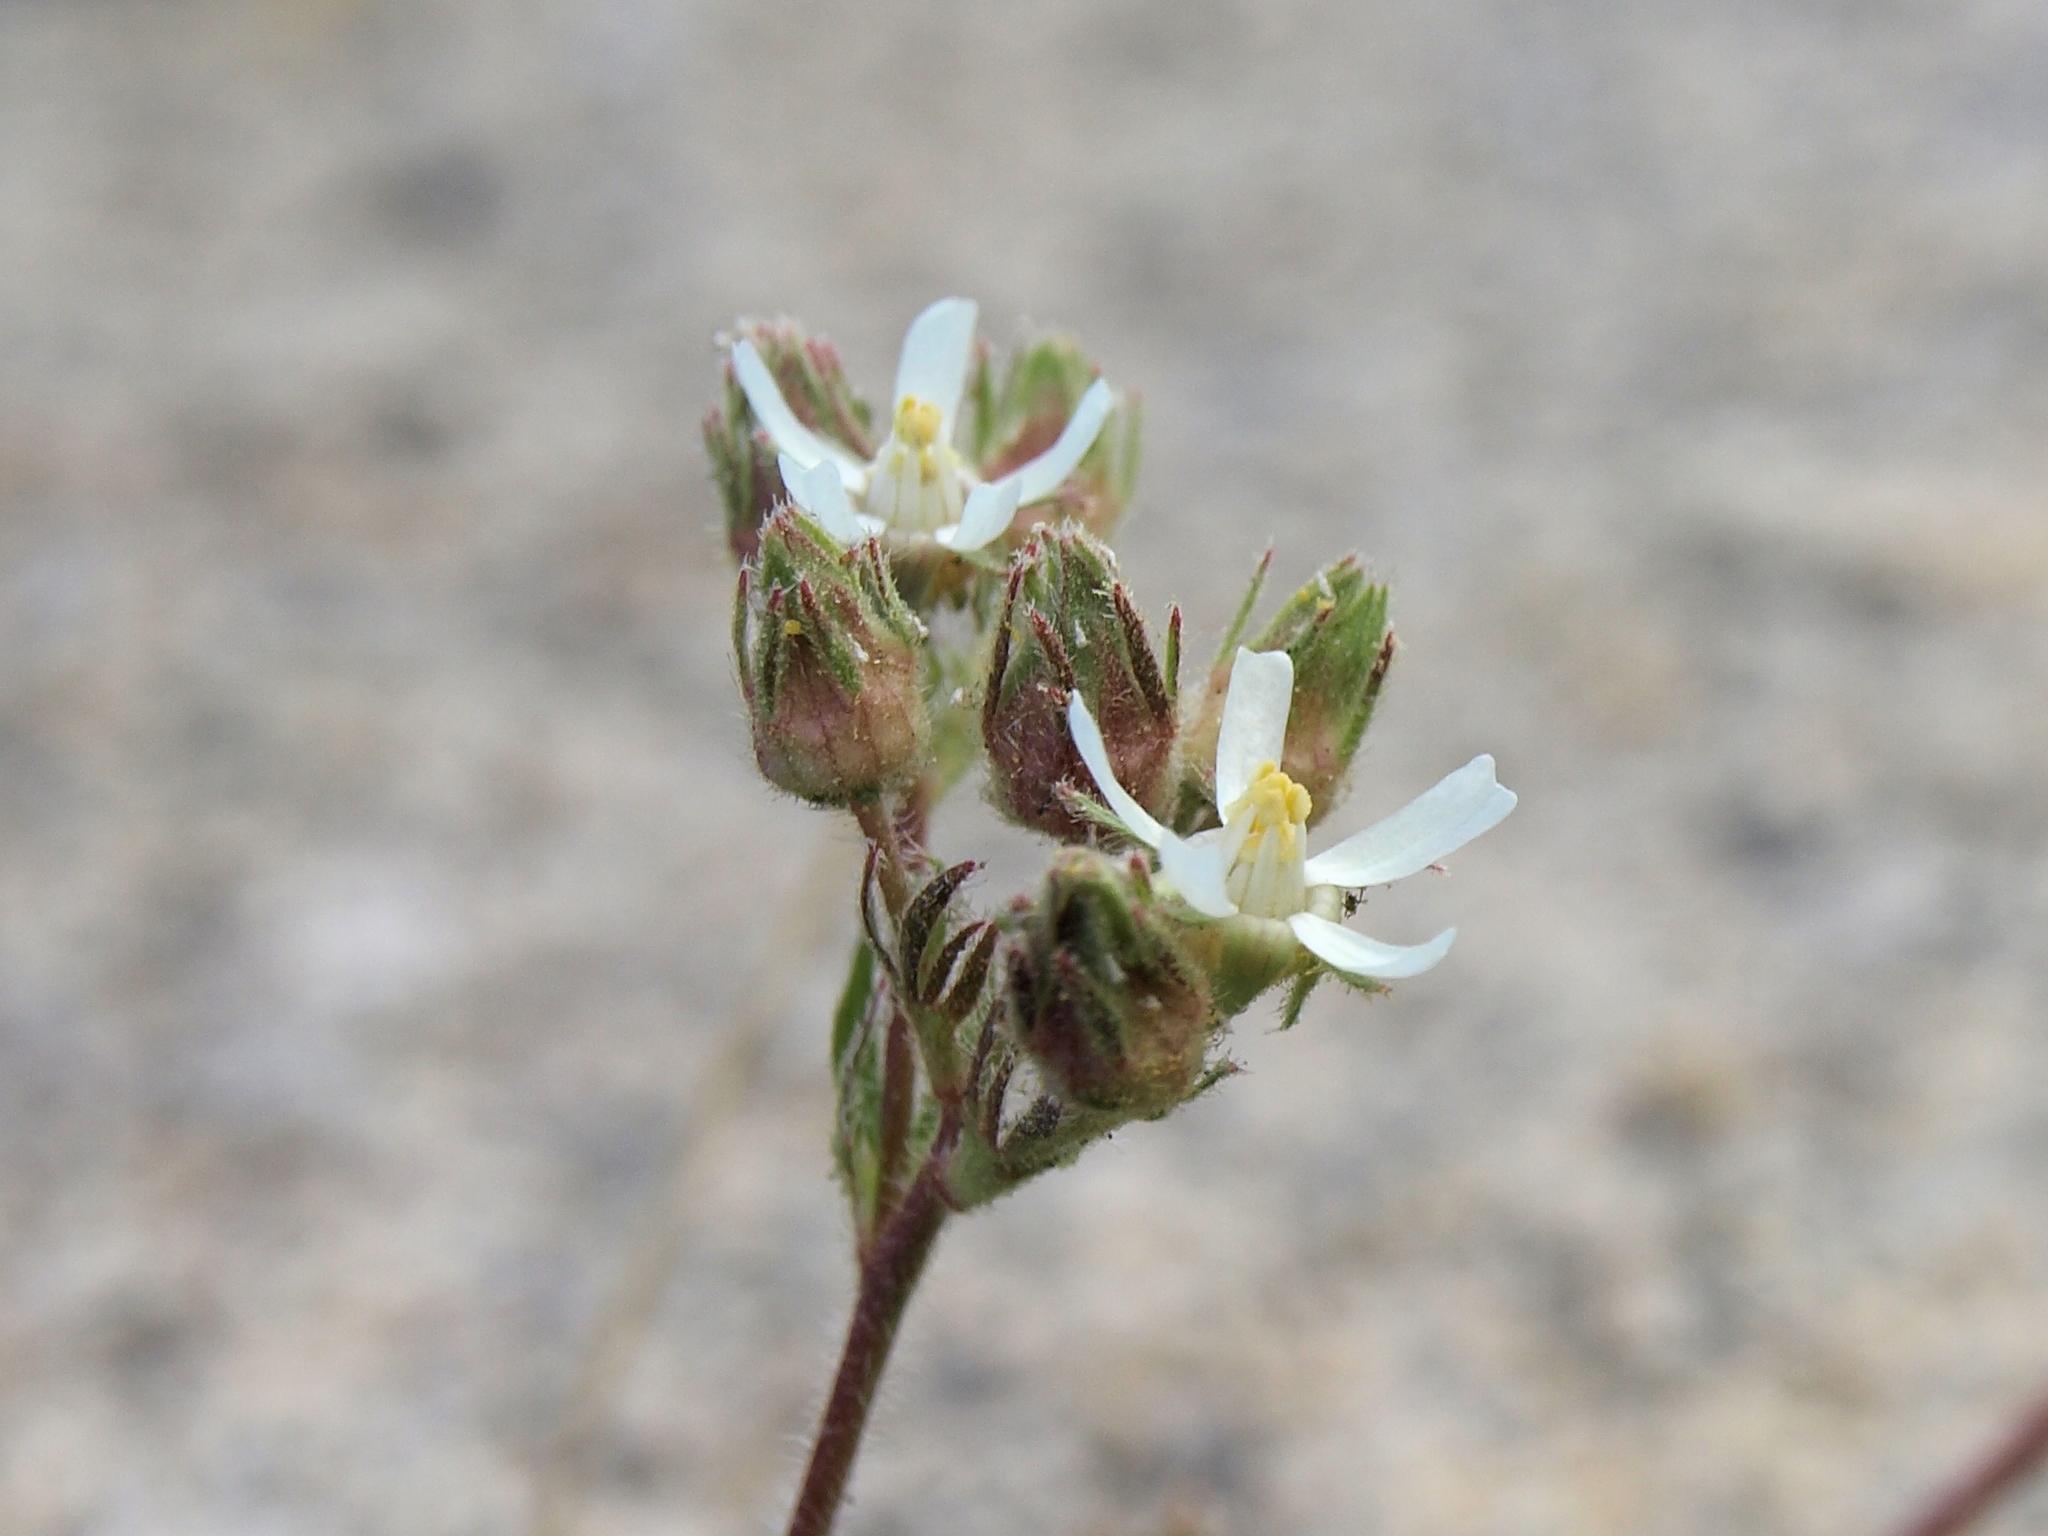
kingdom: Plantae
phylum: Tracheophyta
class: Magnoliopsida
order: Rosales
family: Rosaceae
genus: Potentilla
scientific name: Potentilla hispidula
